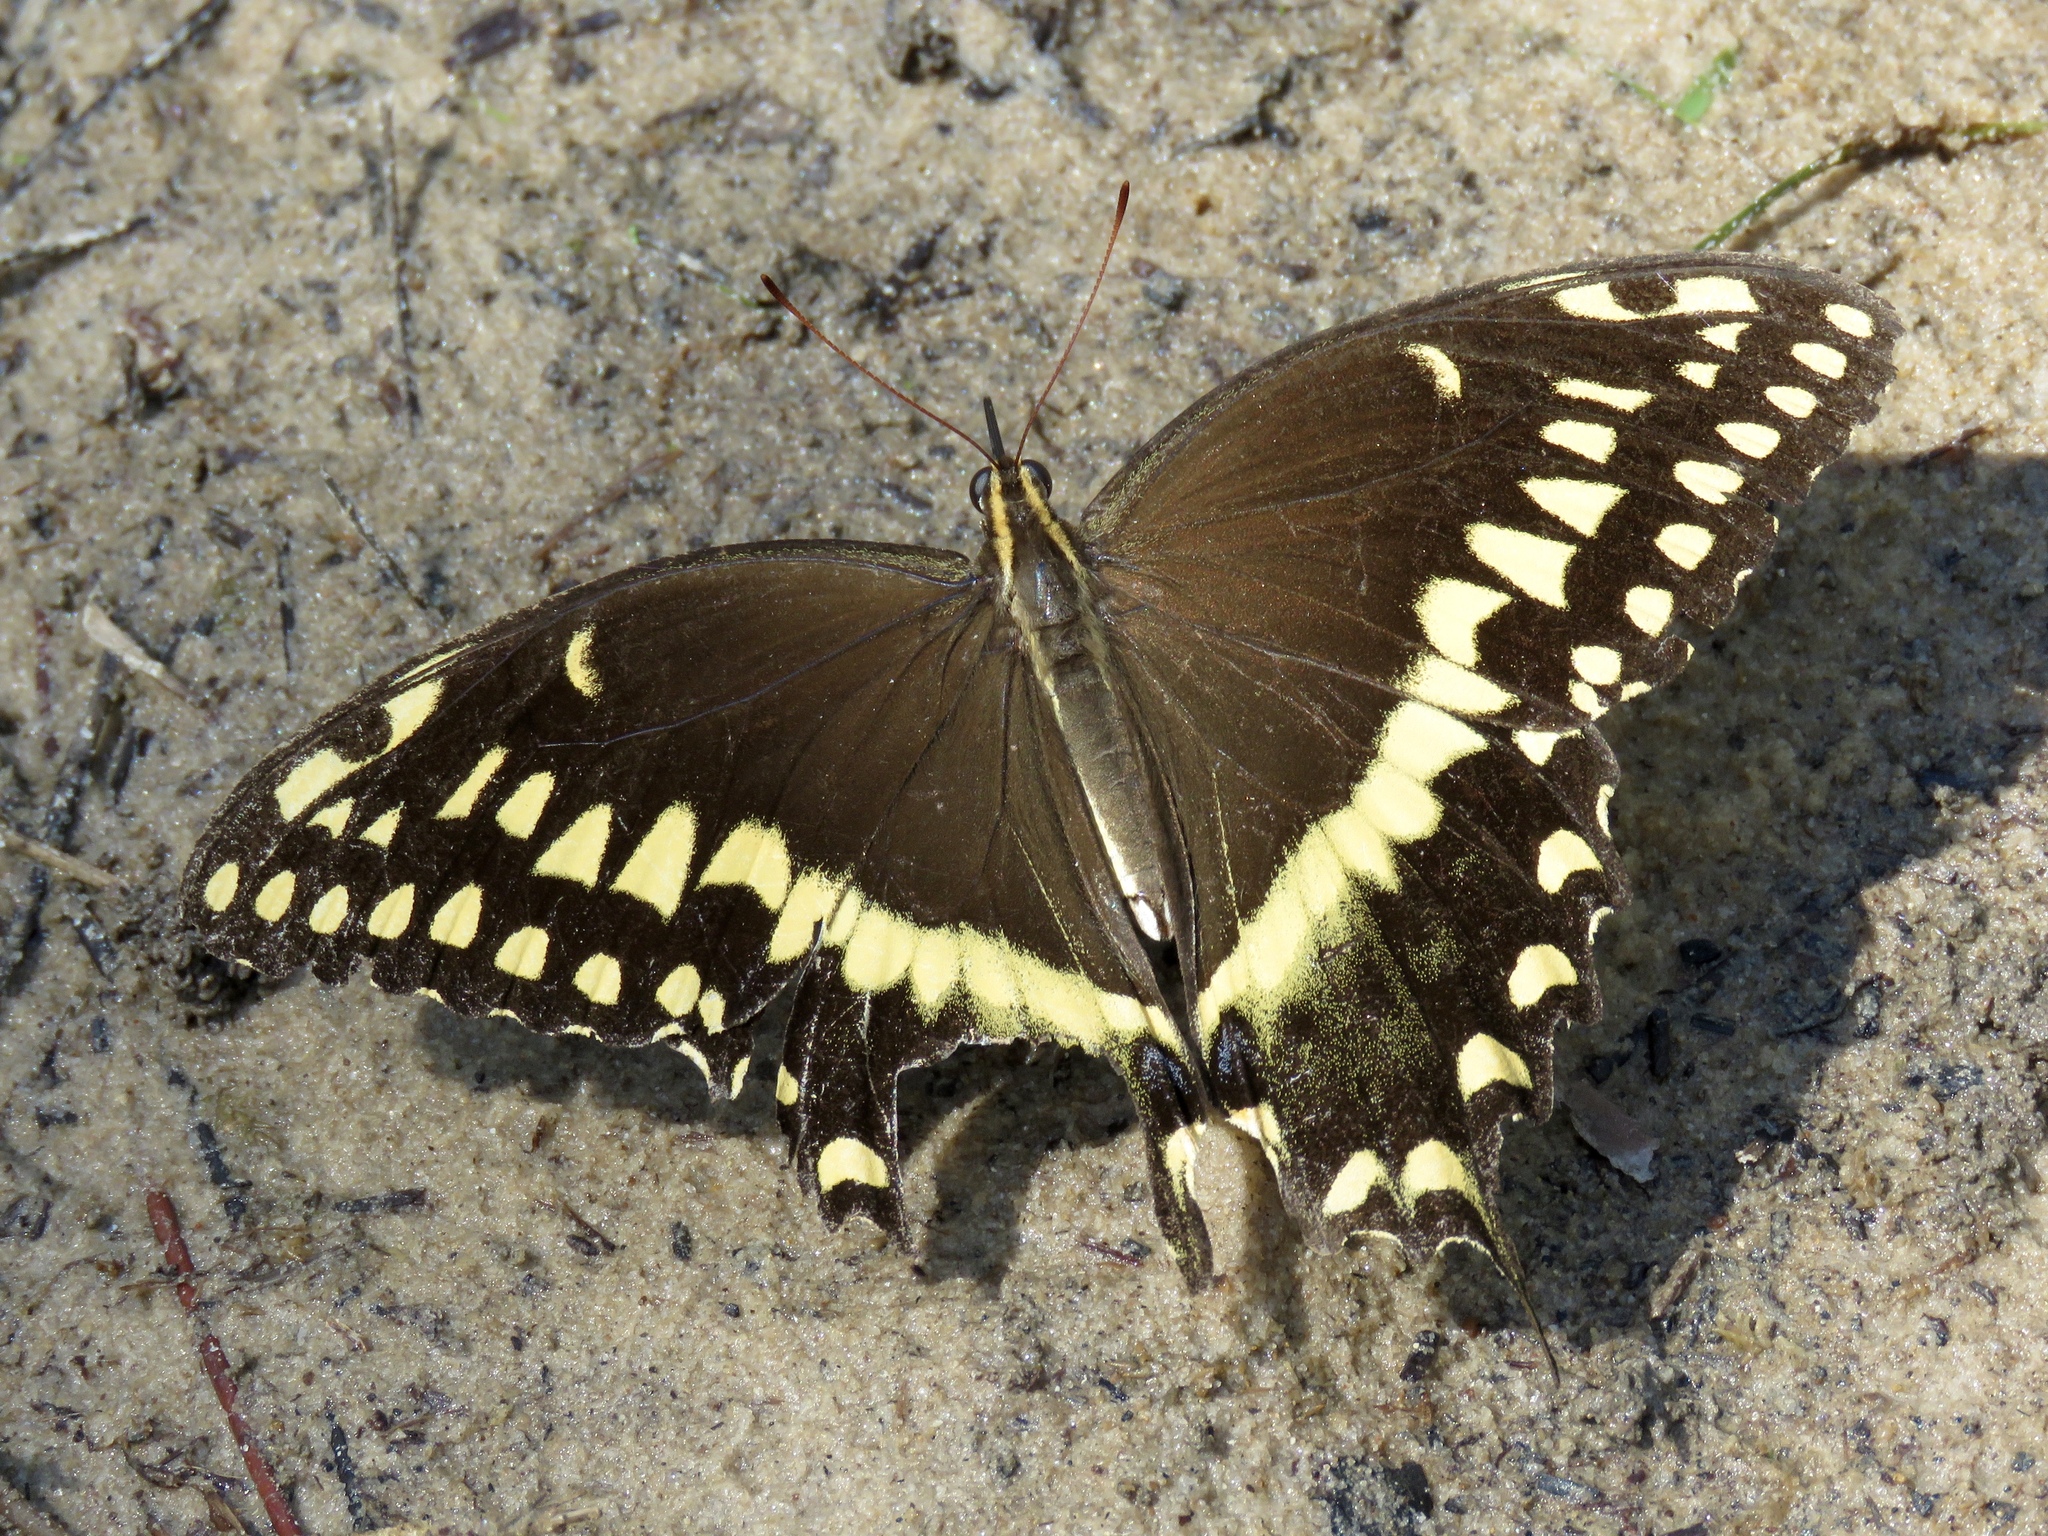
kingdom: Animalia
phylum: Arthropoda
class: Insecta
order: Lepidoptera
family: Papilionidae
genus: Papilio
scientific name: Papilio palamedes
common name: Palamedes swallowtail
